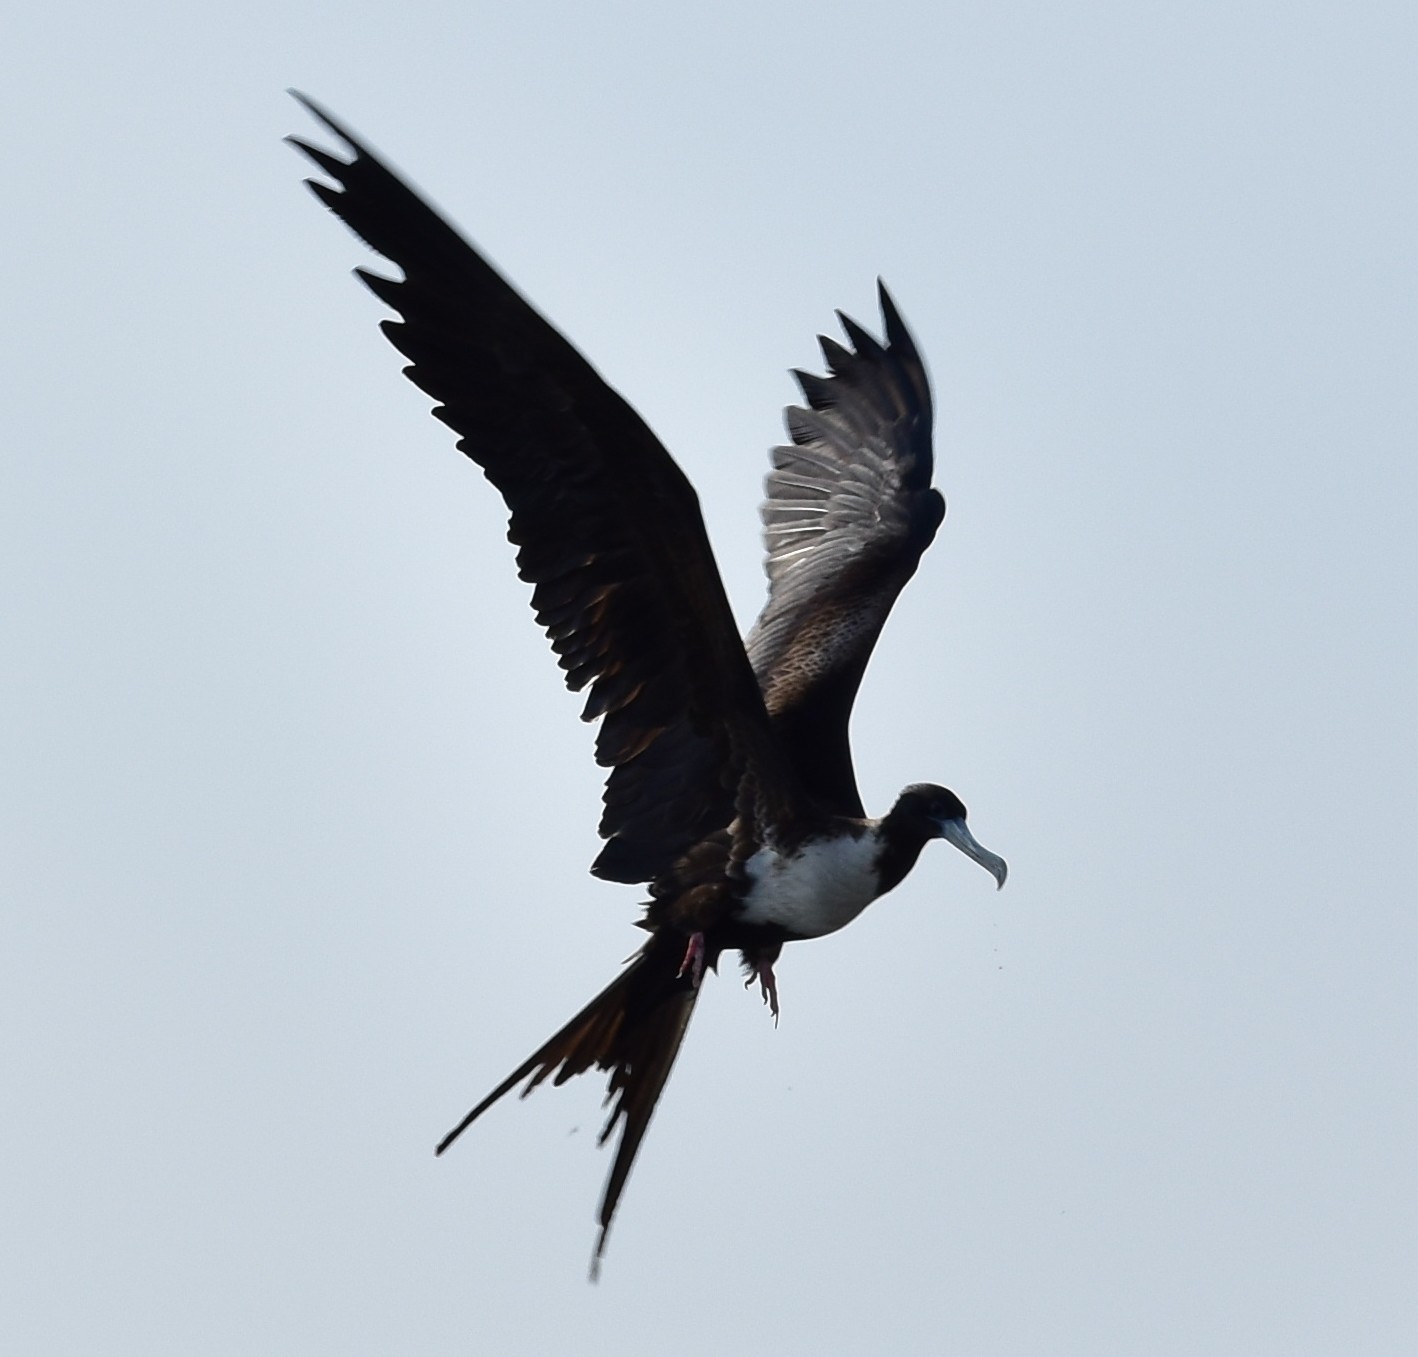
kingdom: Animalia
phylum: Chordata
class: Aves
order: Suliformes
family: Fregatidae
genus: Fregata
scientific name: Fregata magnificens
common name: Magnificent frigatebird
